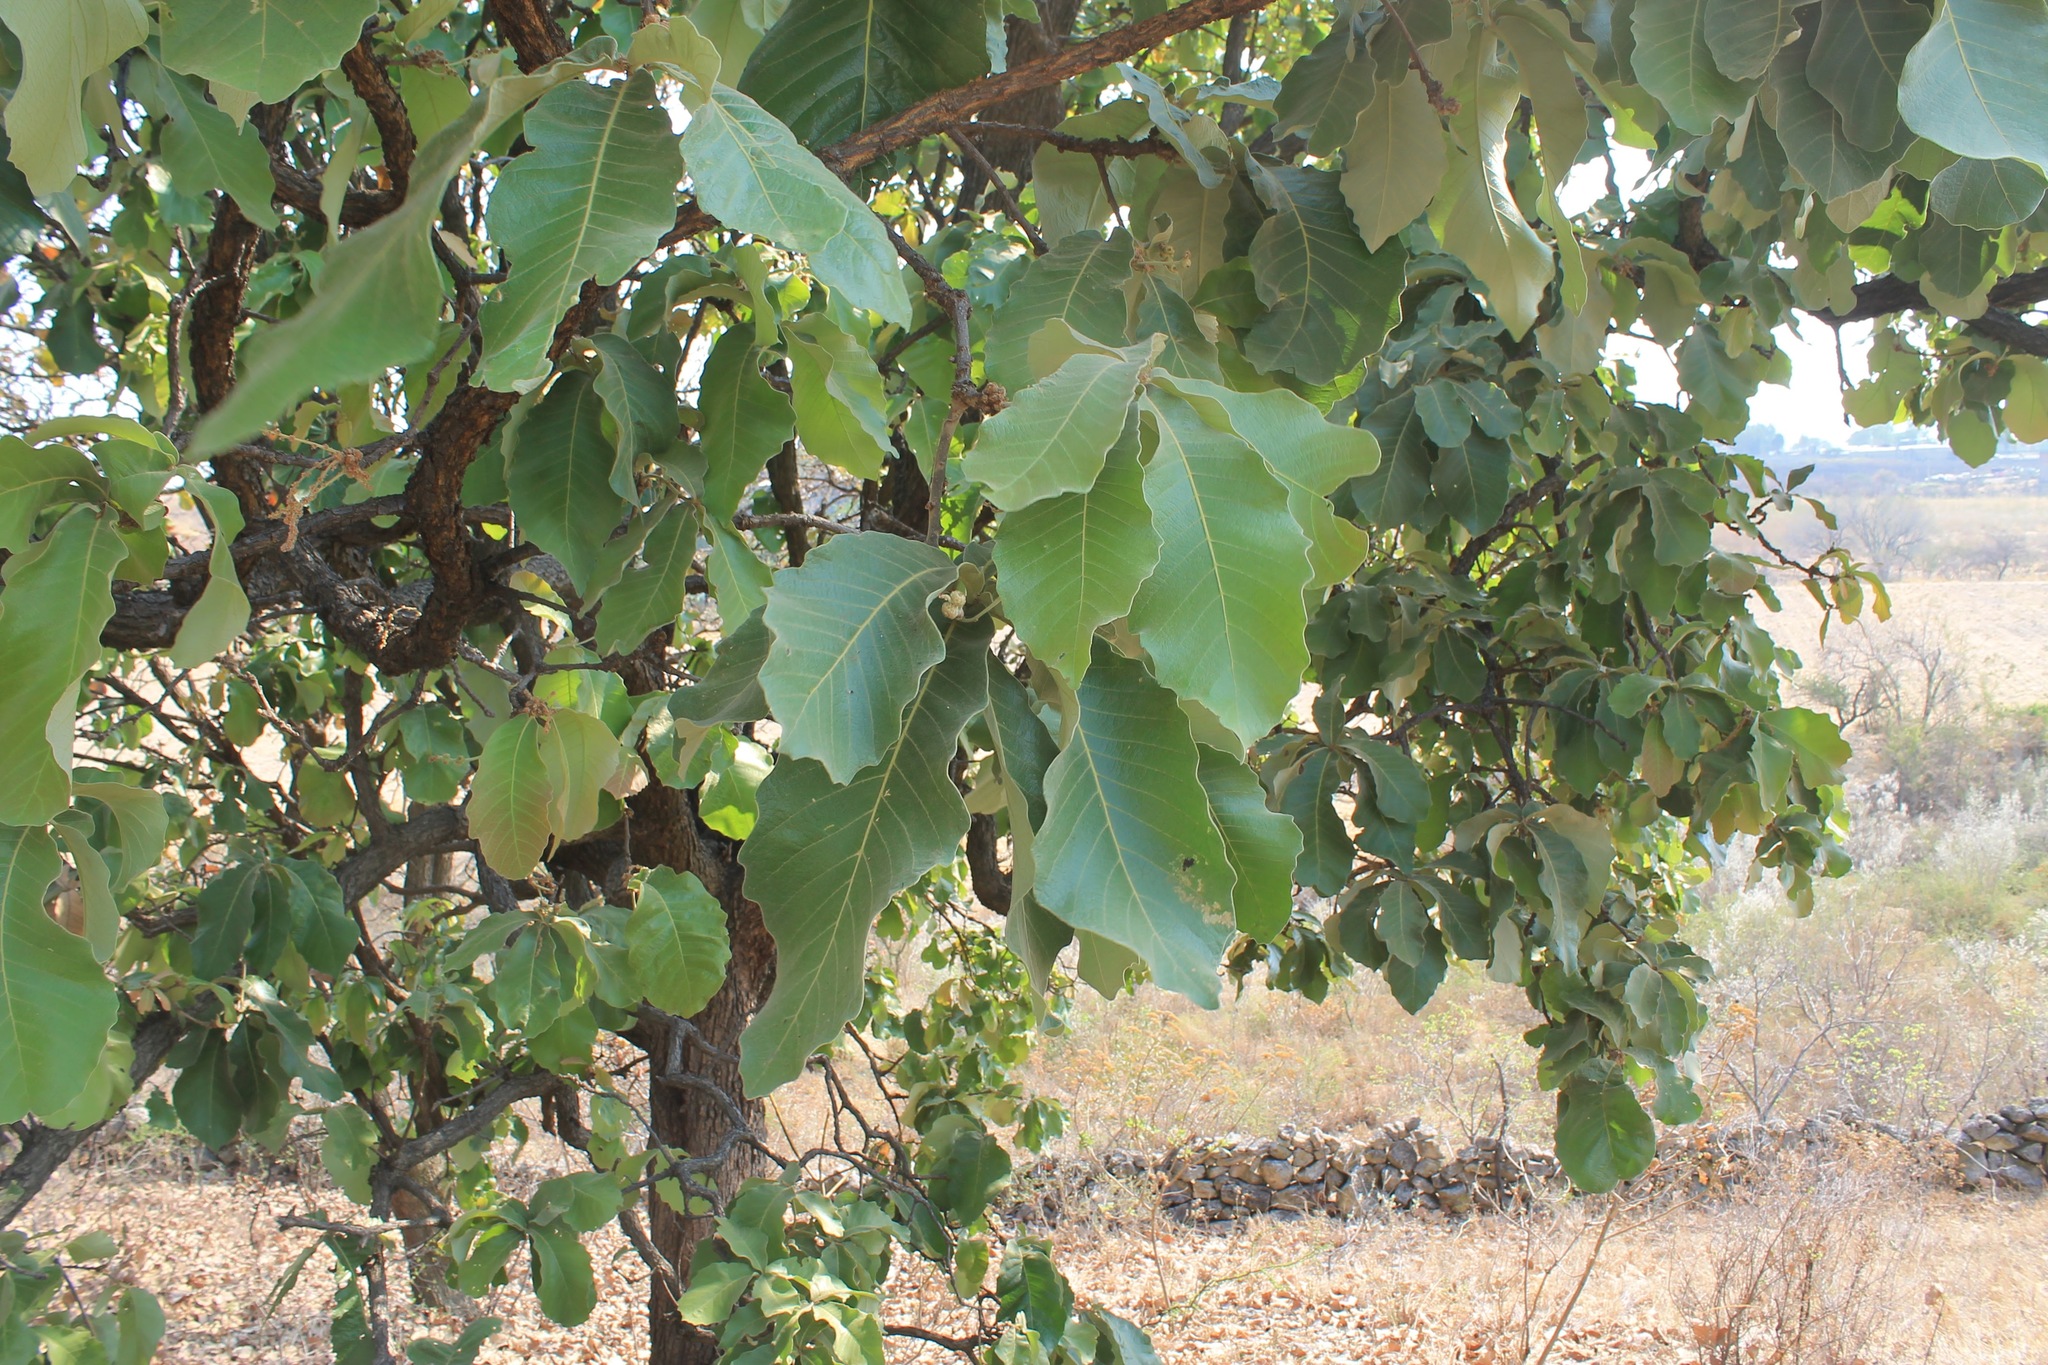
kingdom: Plantae
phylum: Tracheophyta
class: Magnoliopsida
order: Fagales
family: Fagaceae
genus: Quercus
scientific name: Quercus resinosa
